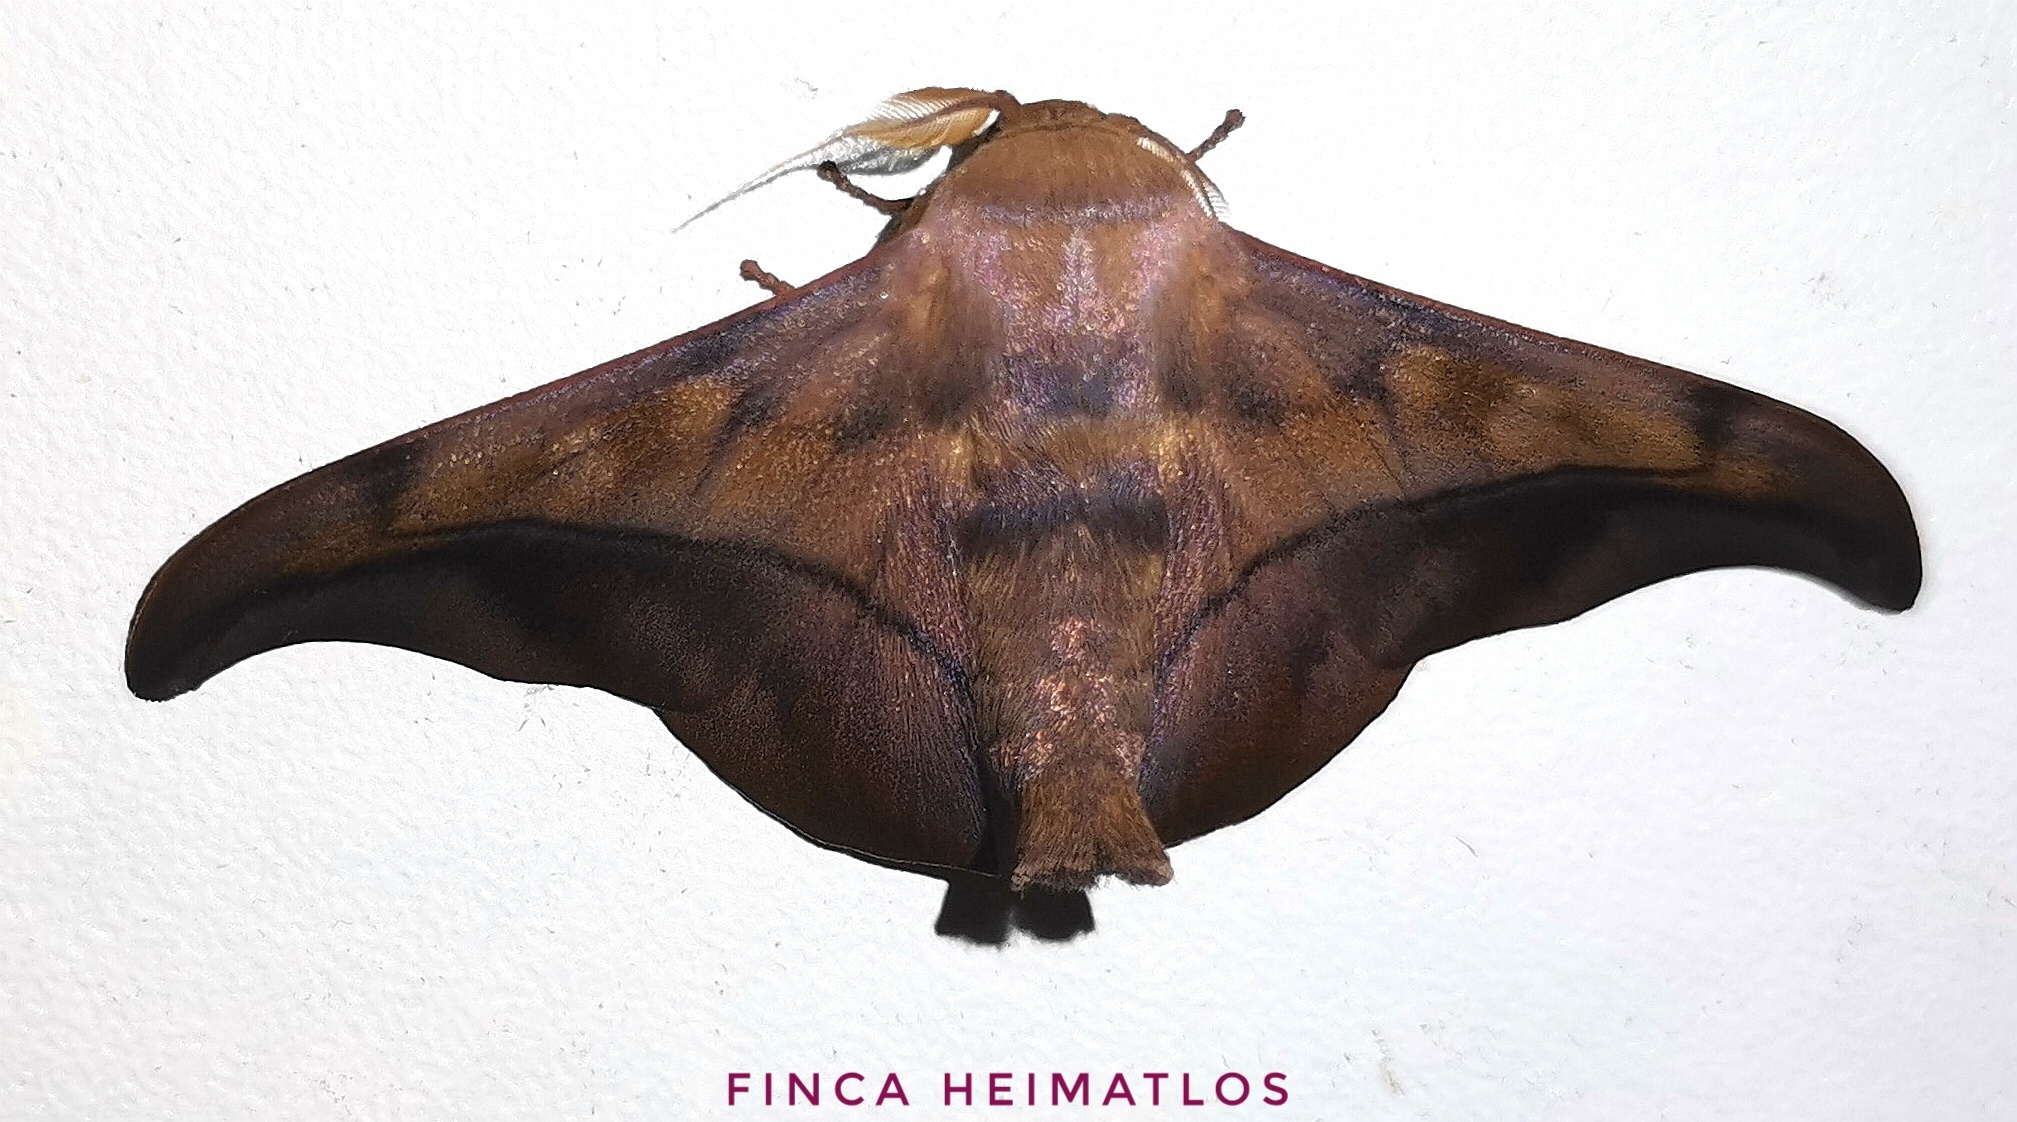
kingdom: Animalia
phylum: Arthropoda
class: Insecta
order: Lepidoptera
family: Mimallonidae
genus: Cicinnus
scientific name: Cicinnus anysia
